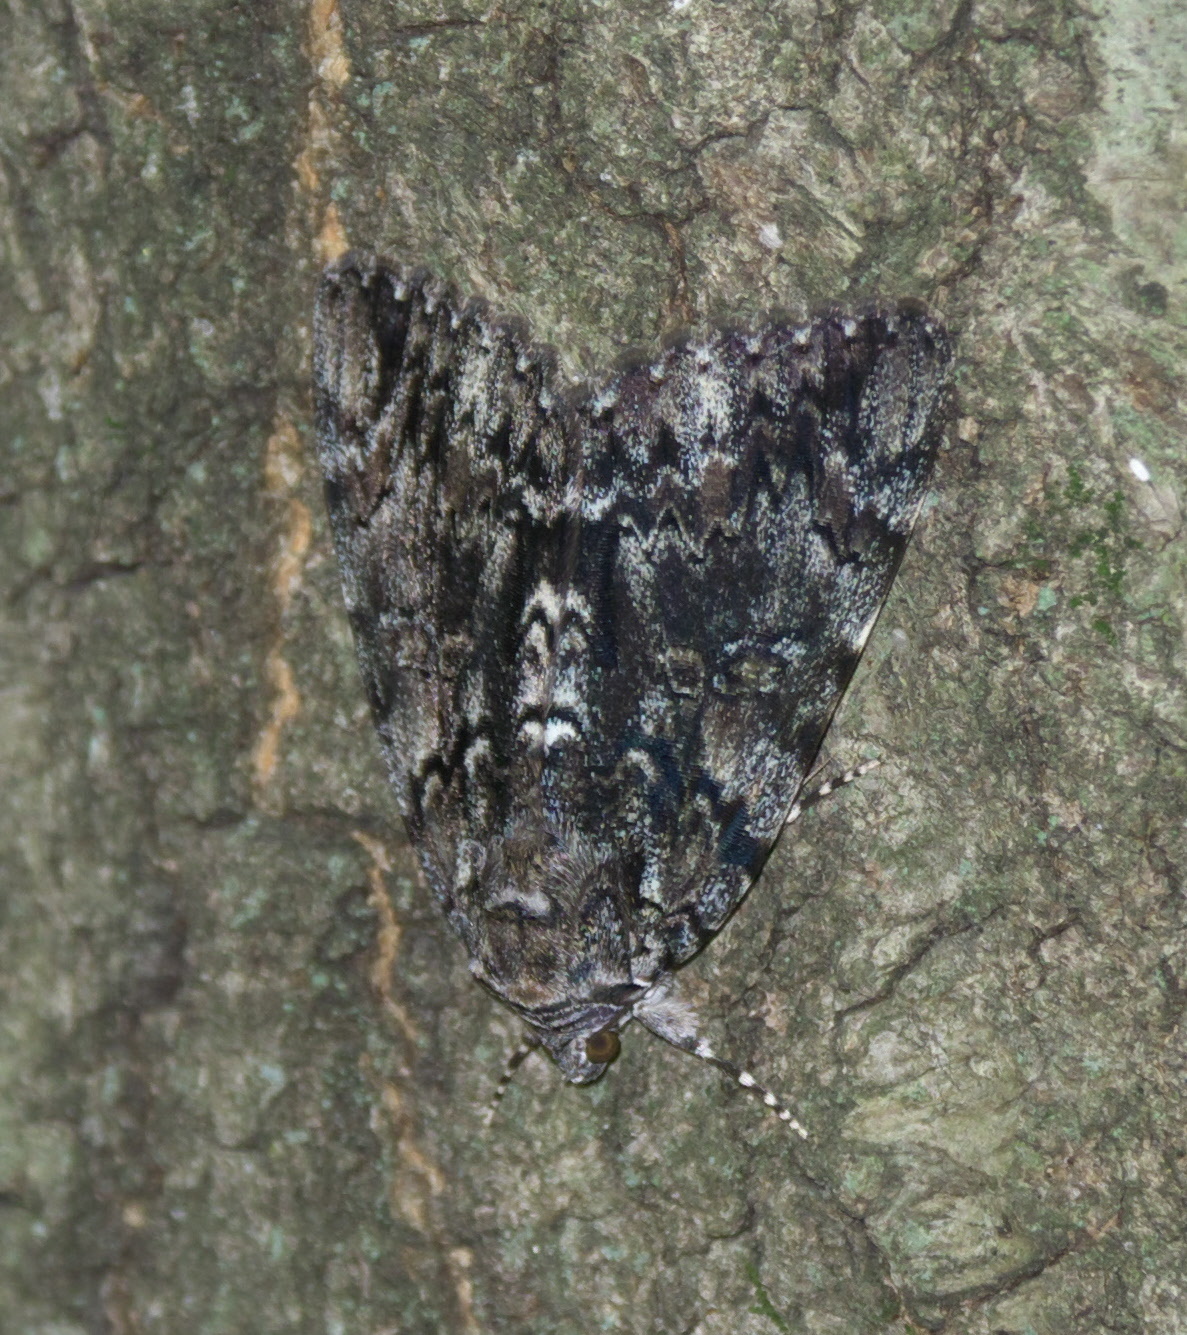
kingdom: Animalia
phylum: Arthropoda
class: Insecta
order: Lepidoptera
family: Erebidae
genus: Catocala
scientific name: Catocala lacrymosa
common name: Tearful underwing
